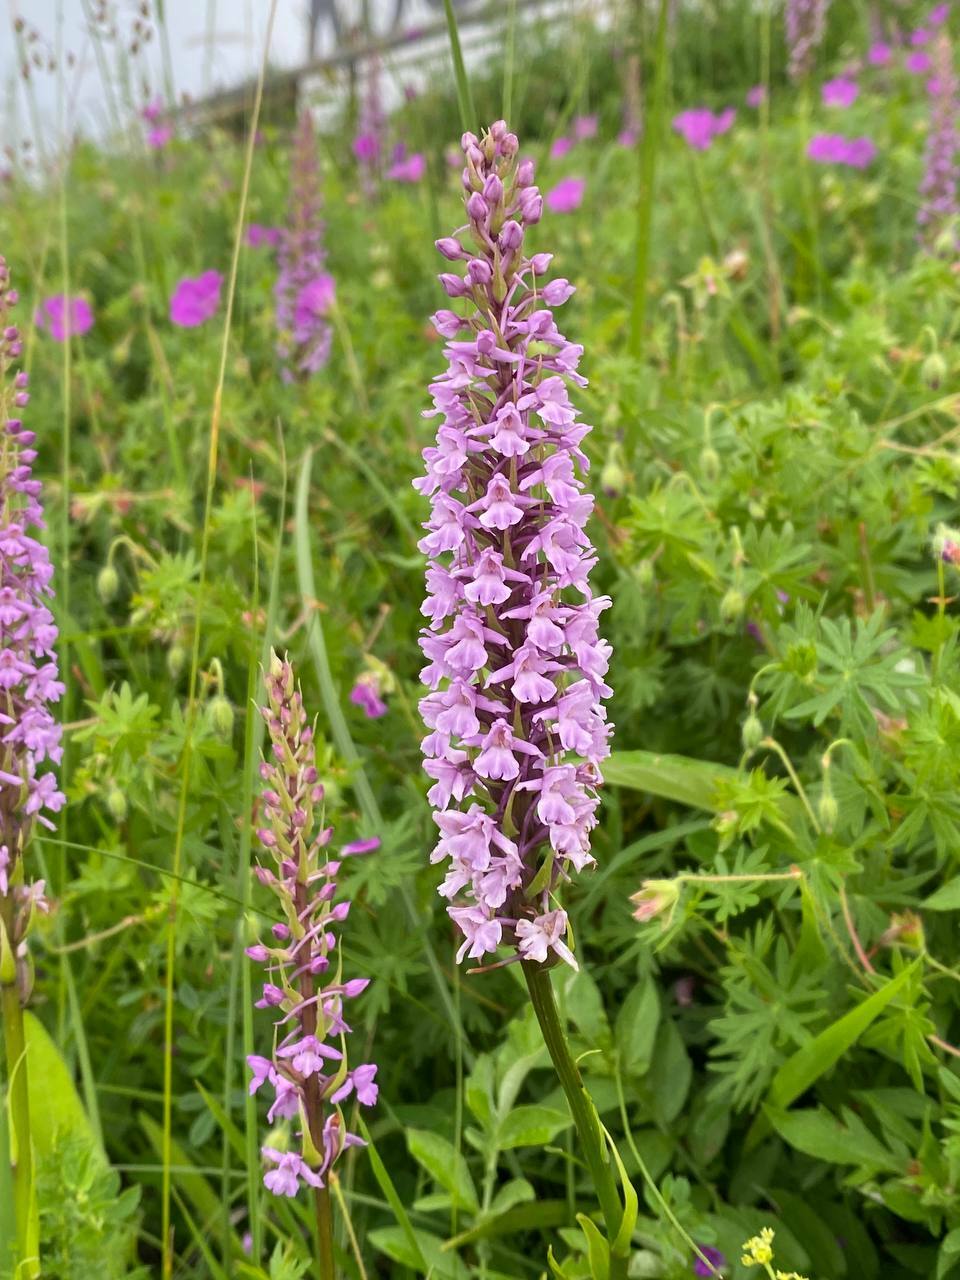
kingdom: Plantae
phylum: Tracheophyta
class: Liliopsida
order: Asparagales
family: Orchidaceae
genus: Gymnadenia
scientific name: Gymnadenia conopsea
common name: Fragrant orchid
